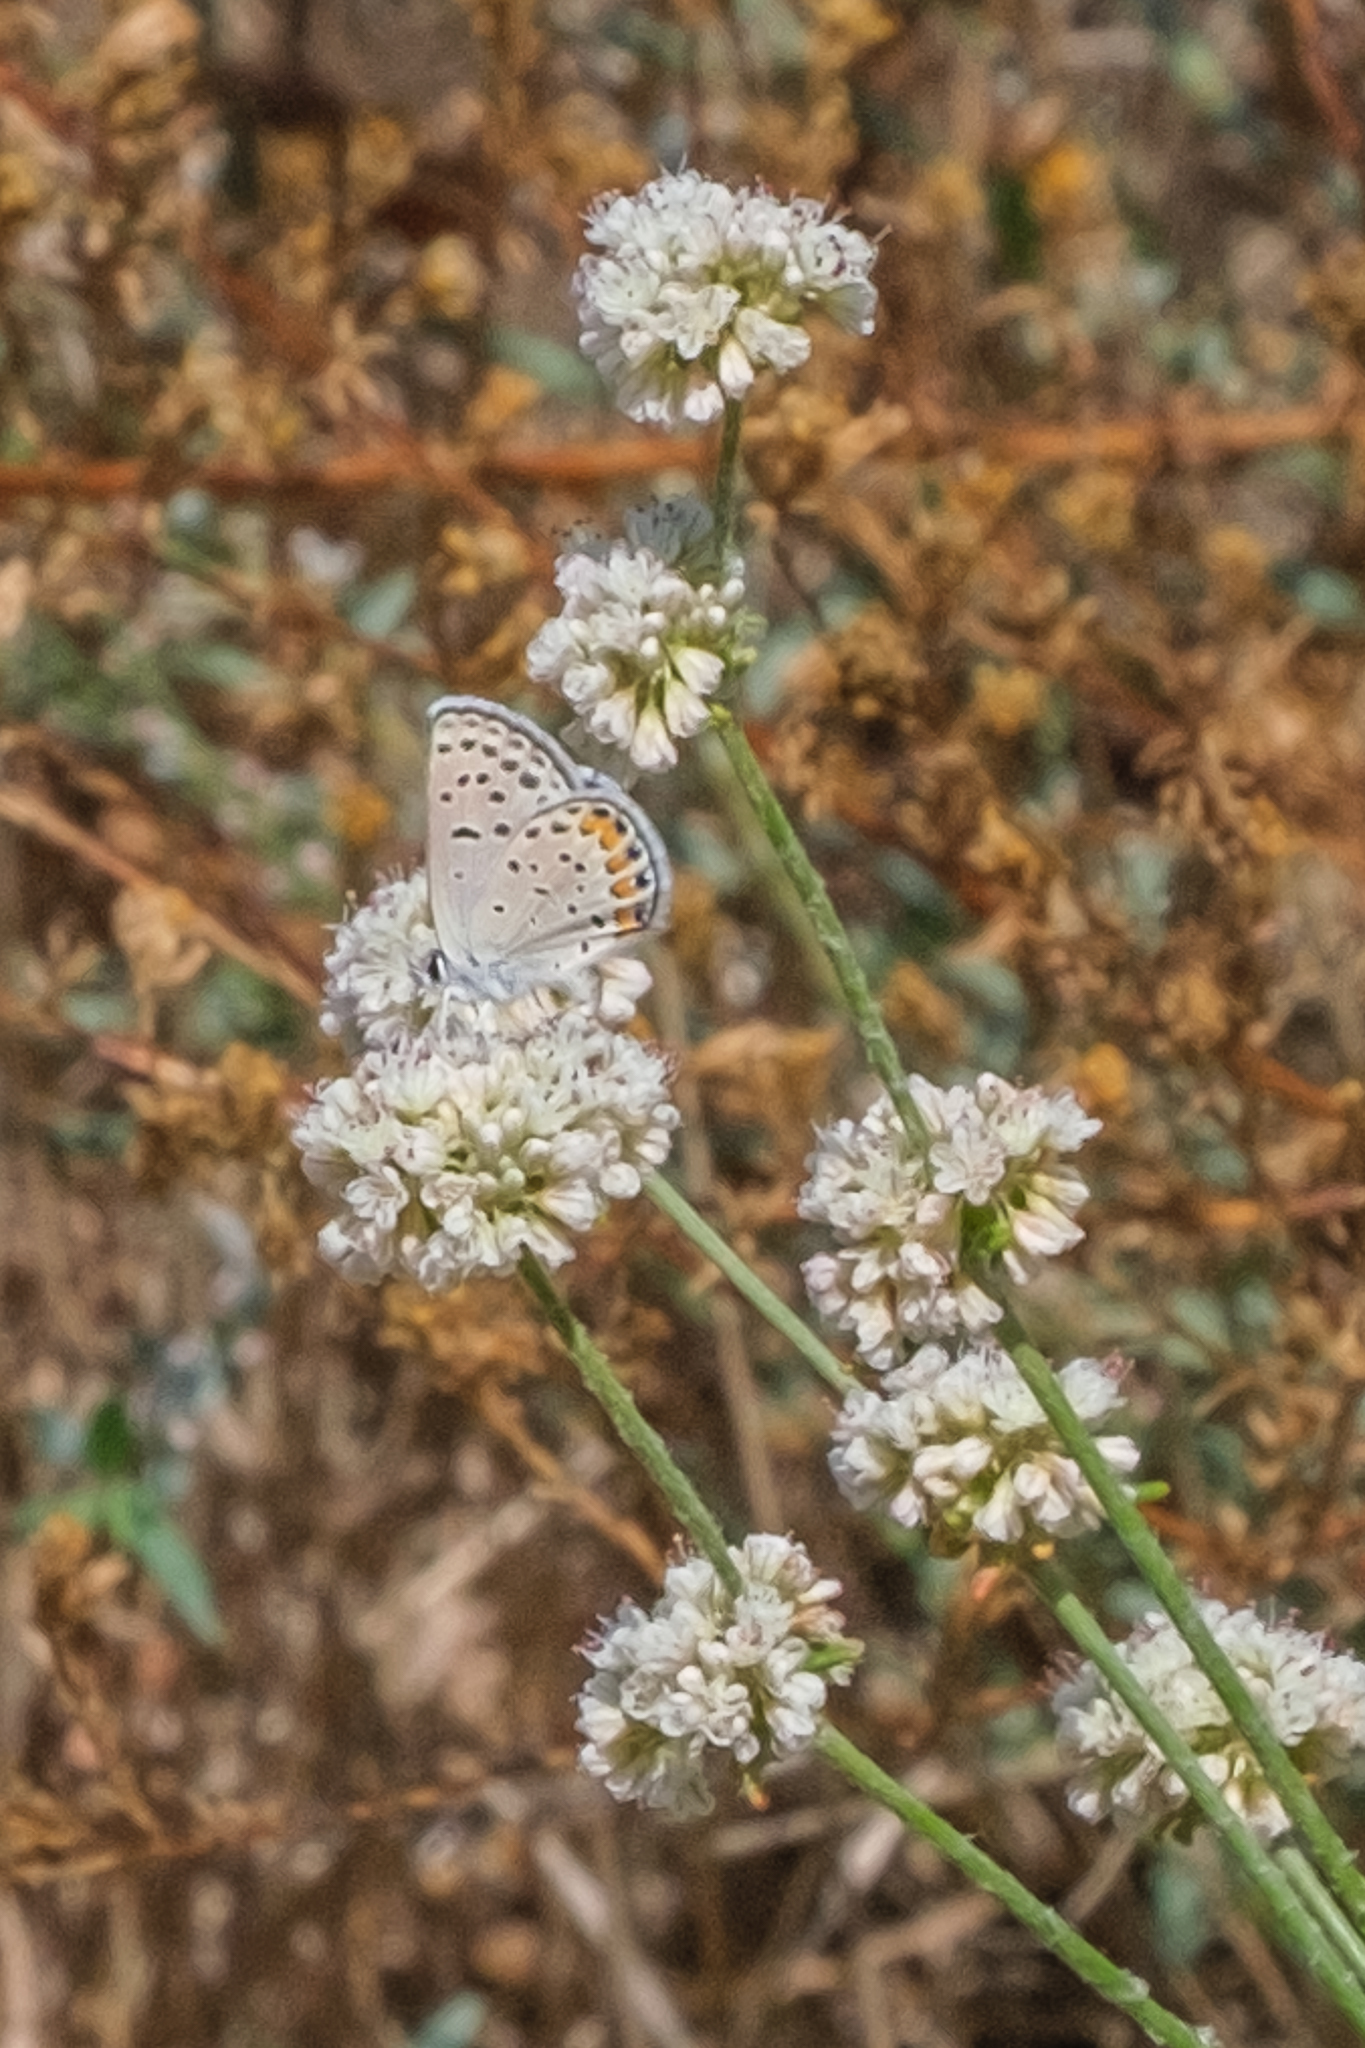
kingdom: Animalia
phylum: Arthropoda
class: Insecta
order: Lepidoptera
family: Lycaenidae
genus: Icaricia
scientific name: Icaricia acmon
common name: Acmon blue
